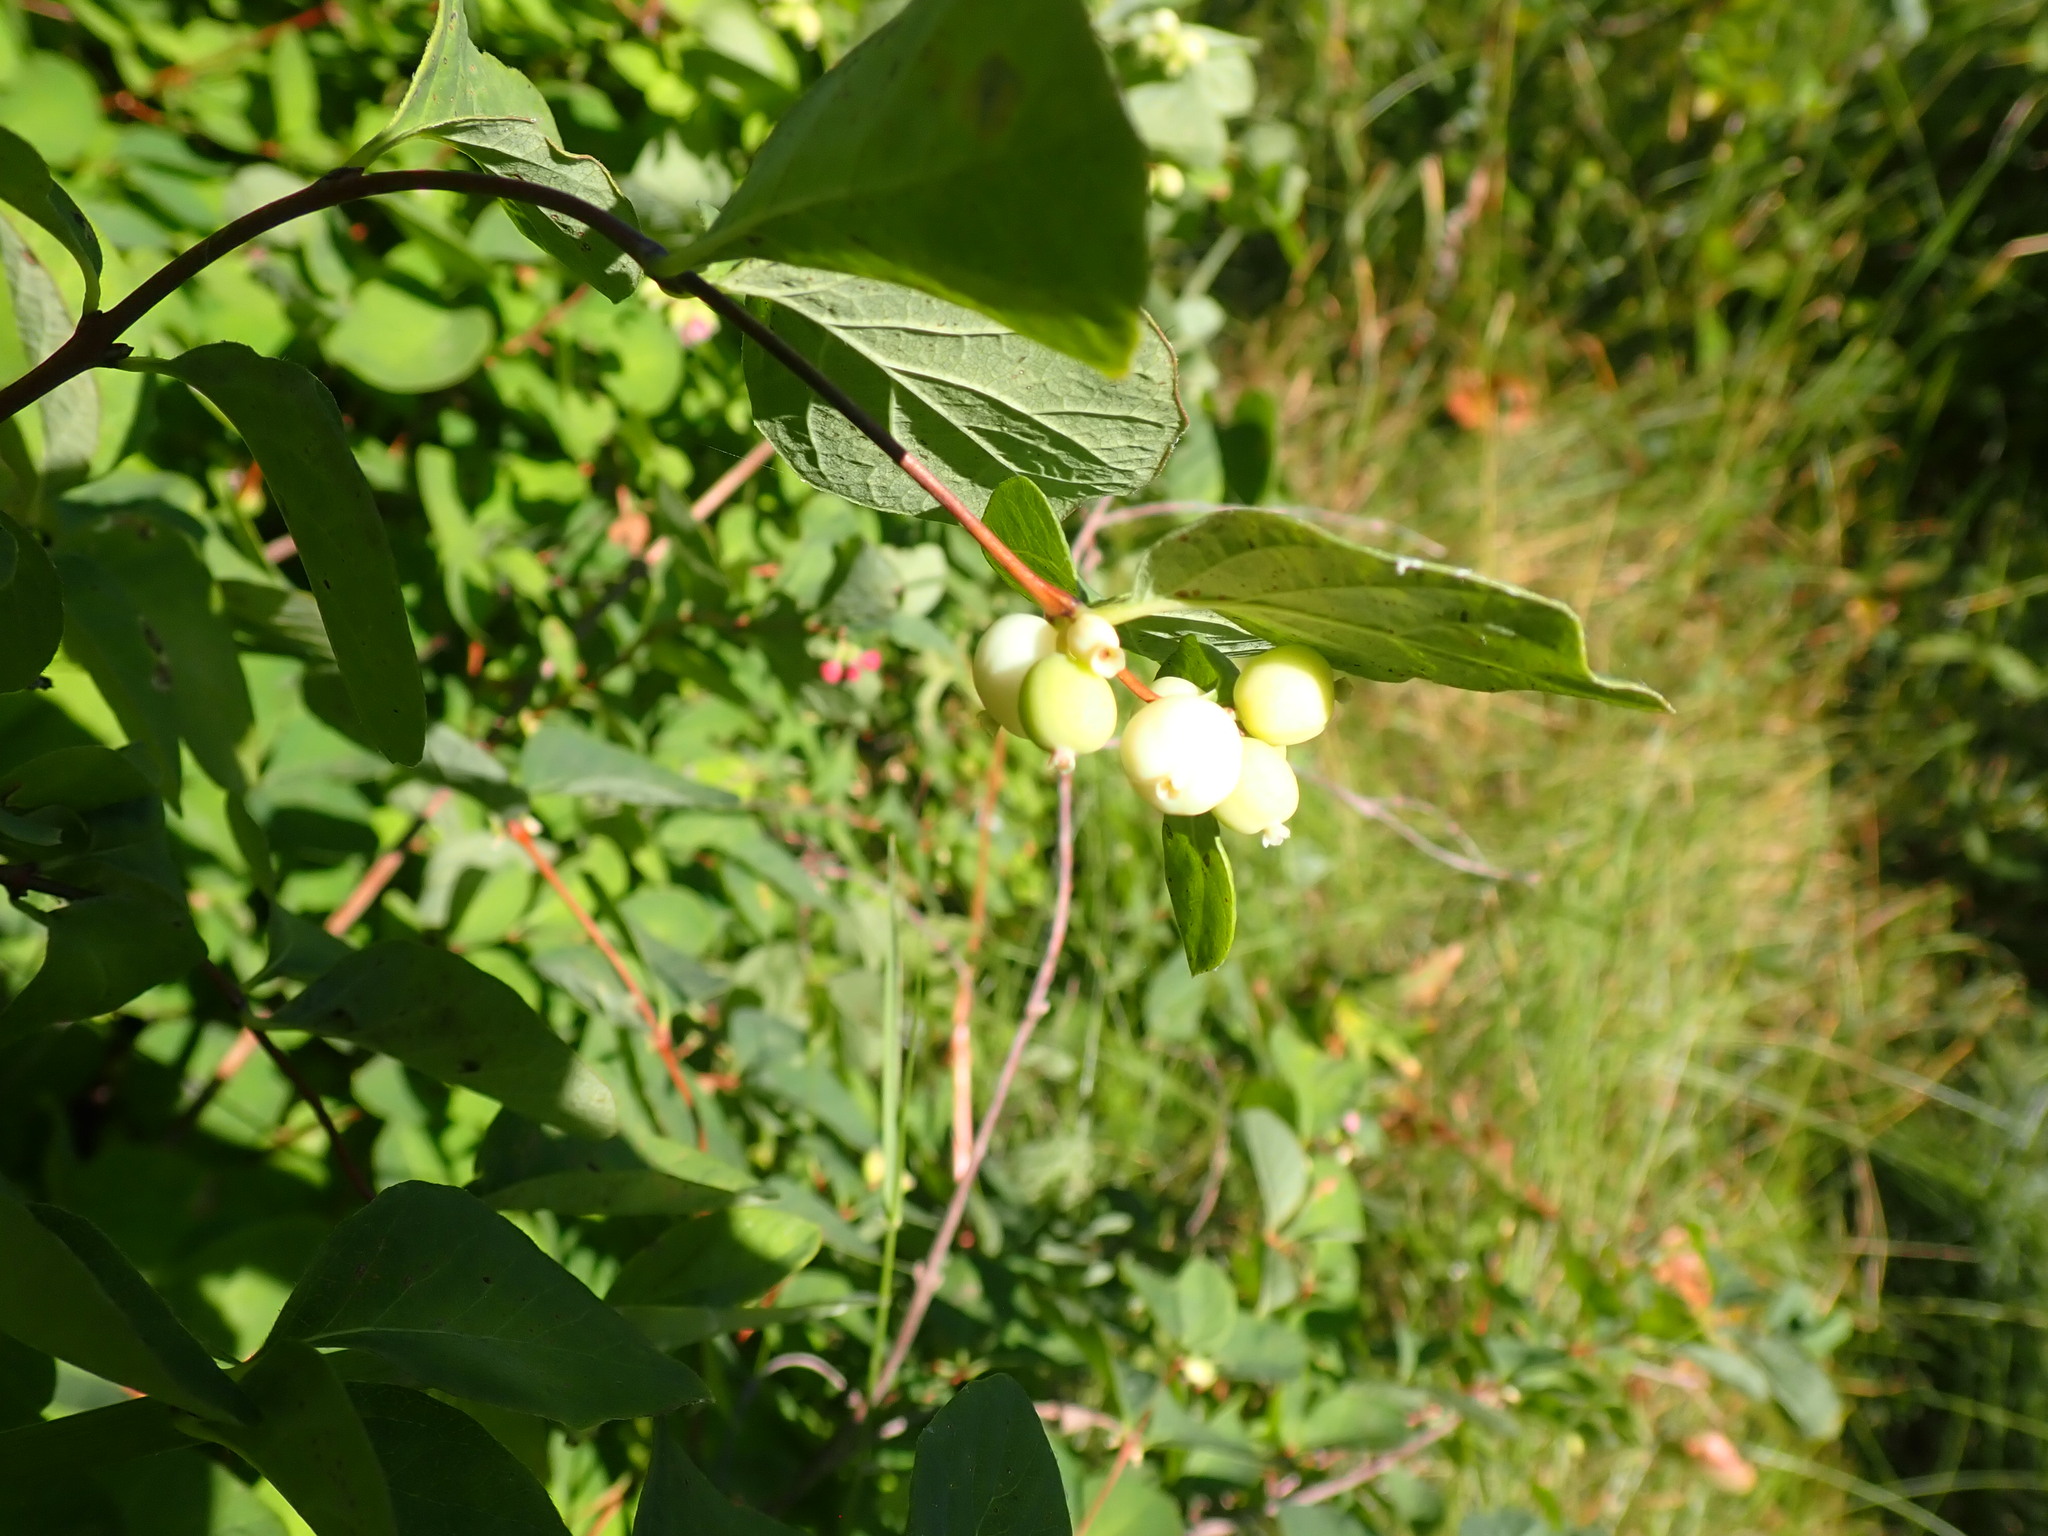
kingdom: Plantae
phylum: Tracheophyta
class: Magnoliopsida
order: Dipsacales
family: Caprifoliaceae
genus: Symphoricarpos
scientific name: Symphoricarpos occidentalis
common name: Wolfberry
